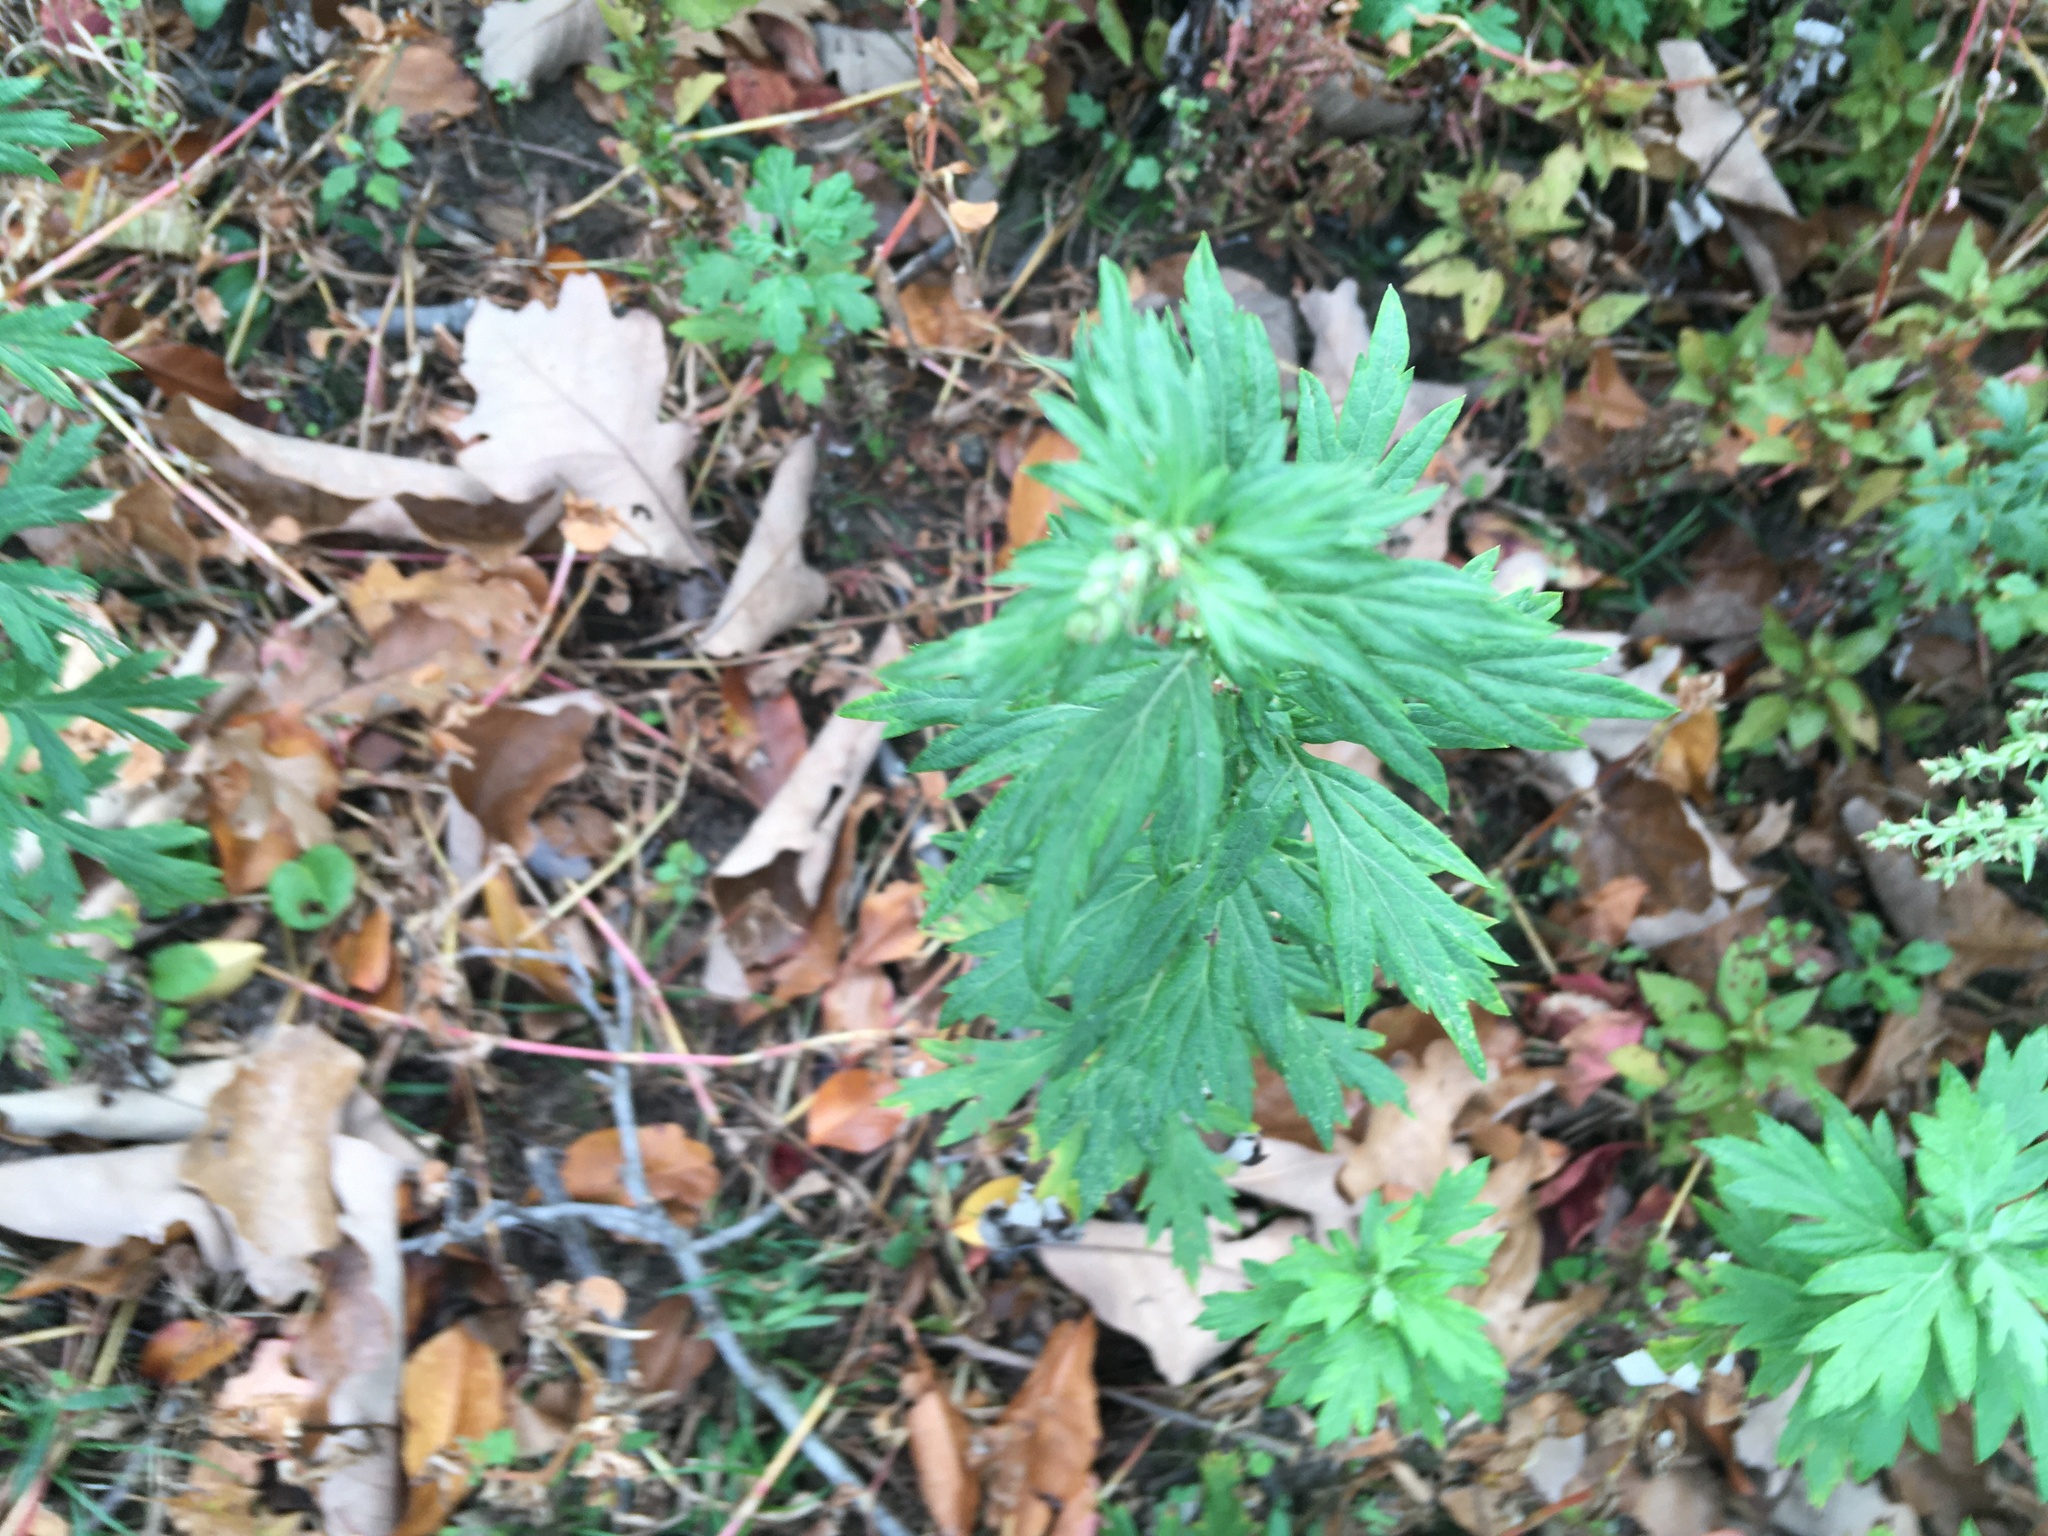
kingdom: Plantae
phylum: Tracheophyta
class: Magnoliopsida
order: Asterales
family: Asteraceae
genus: Artemisia
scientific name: Artemisia vulgaris
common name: Mugwort
